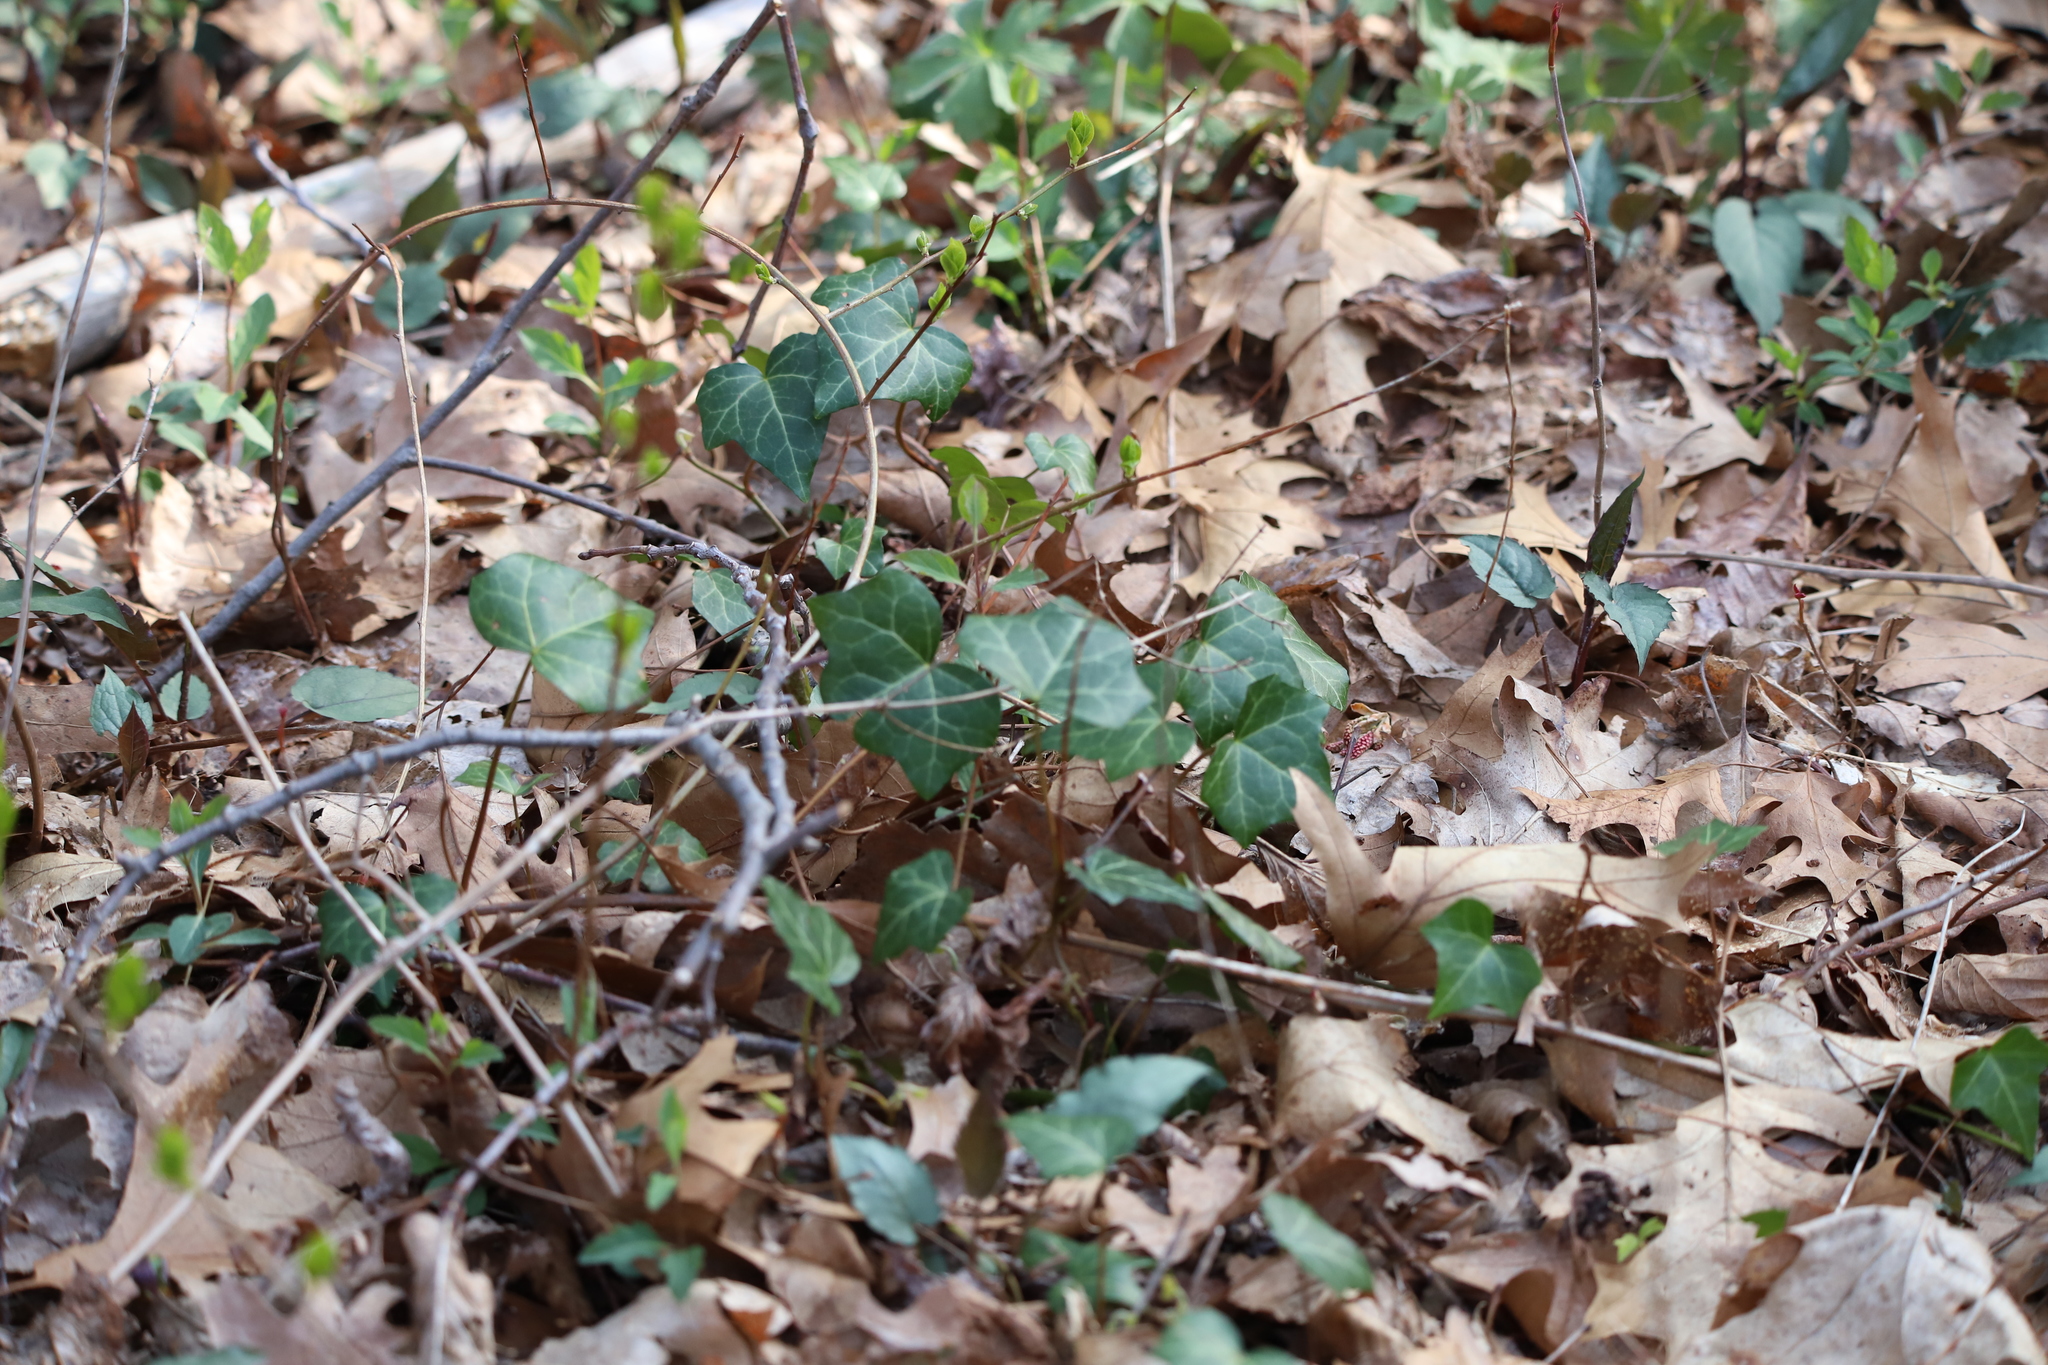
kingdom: Plantae
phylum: Tracheophyta
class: Magnoliopsida
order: Apiales
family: Araliaceae
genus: Hedera
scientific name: Hedera helix
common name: Ivy
